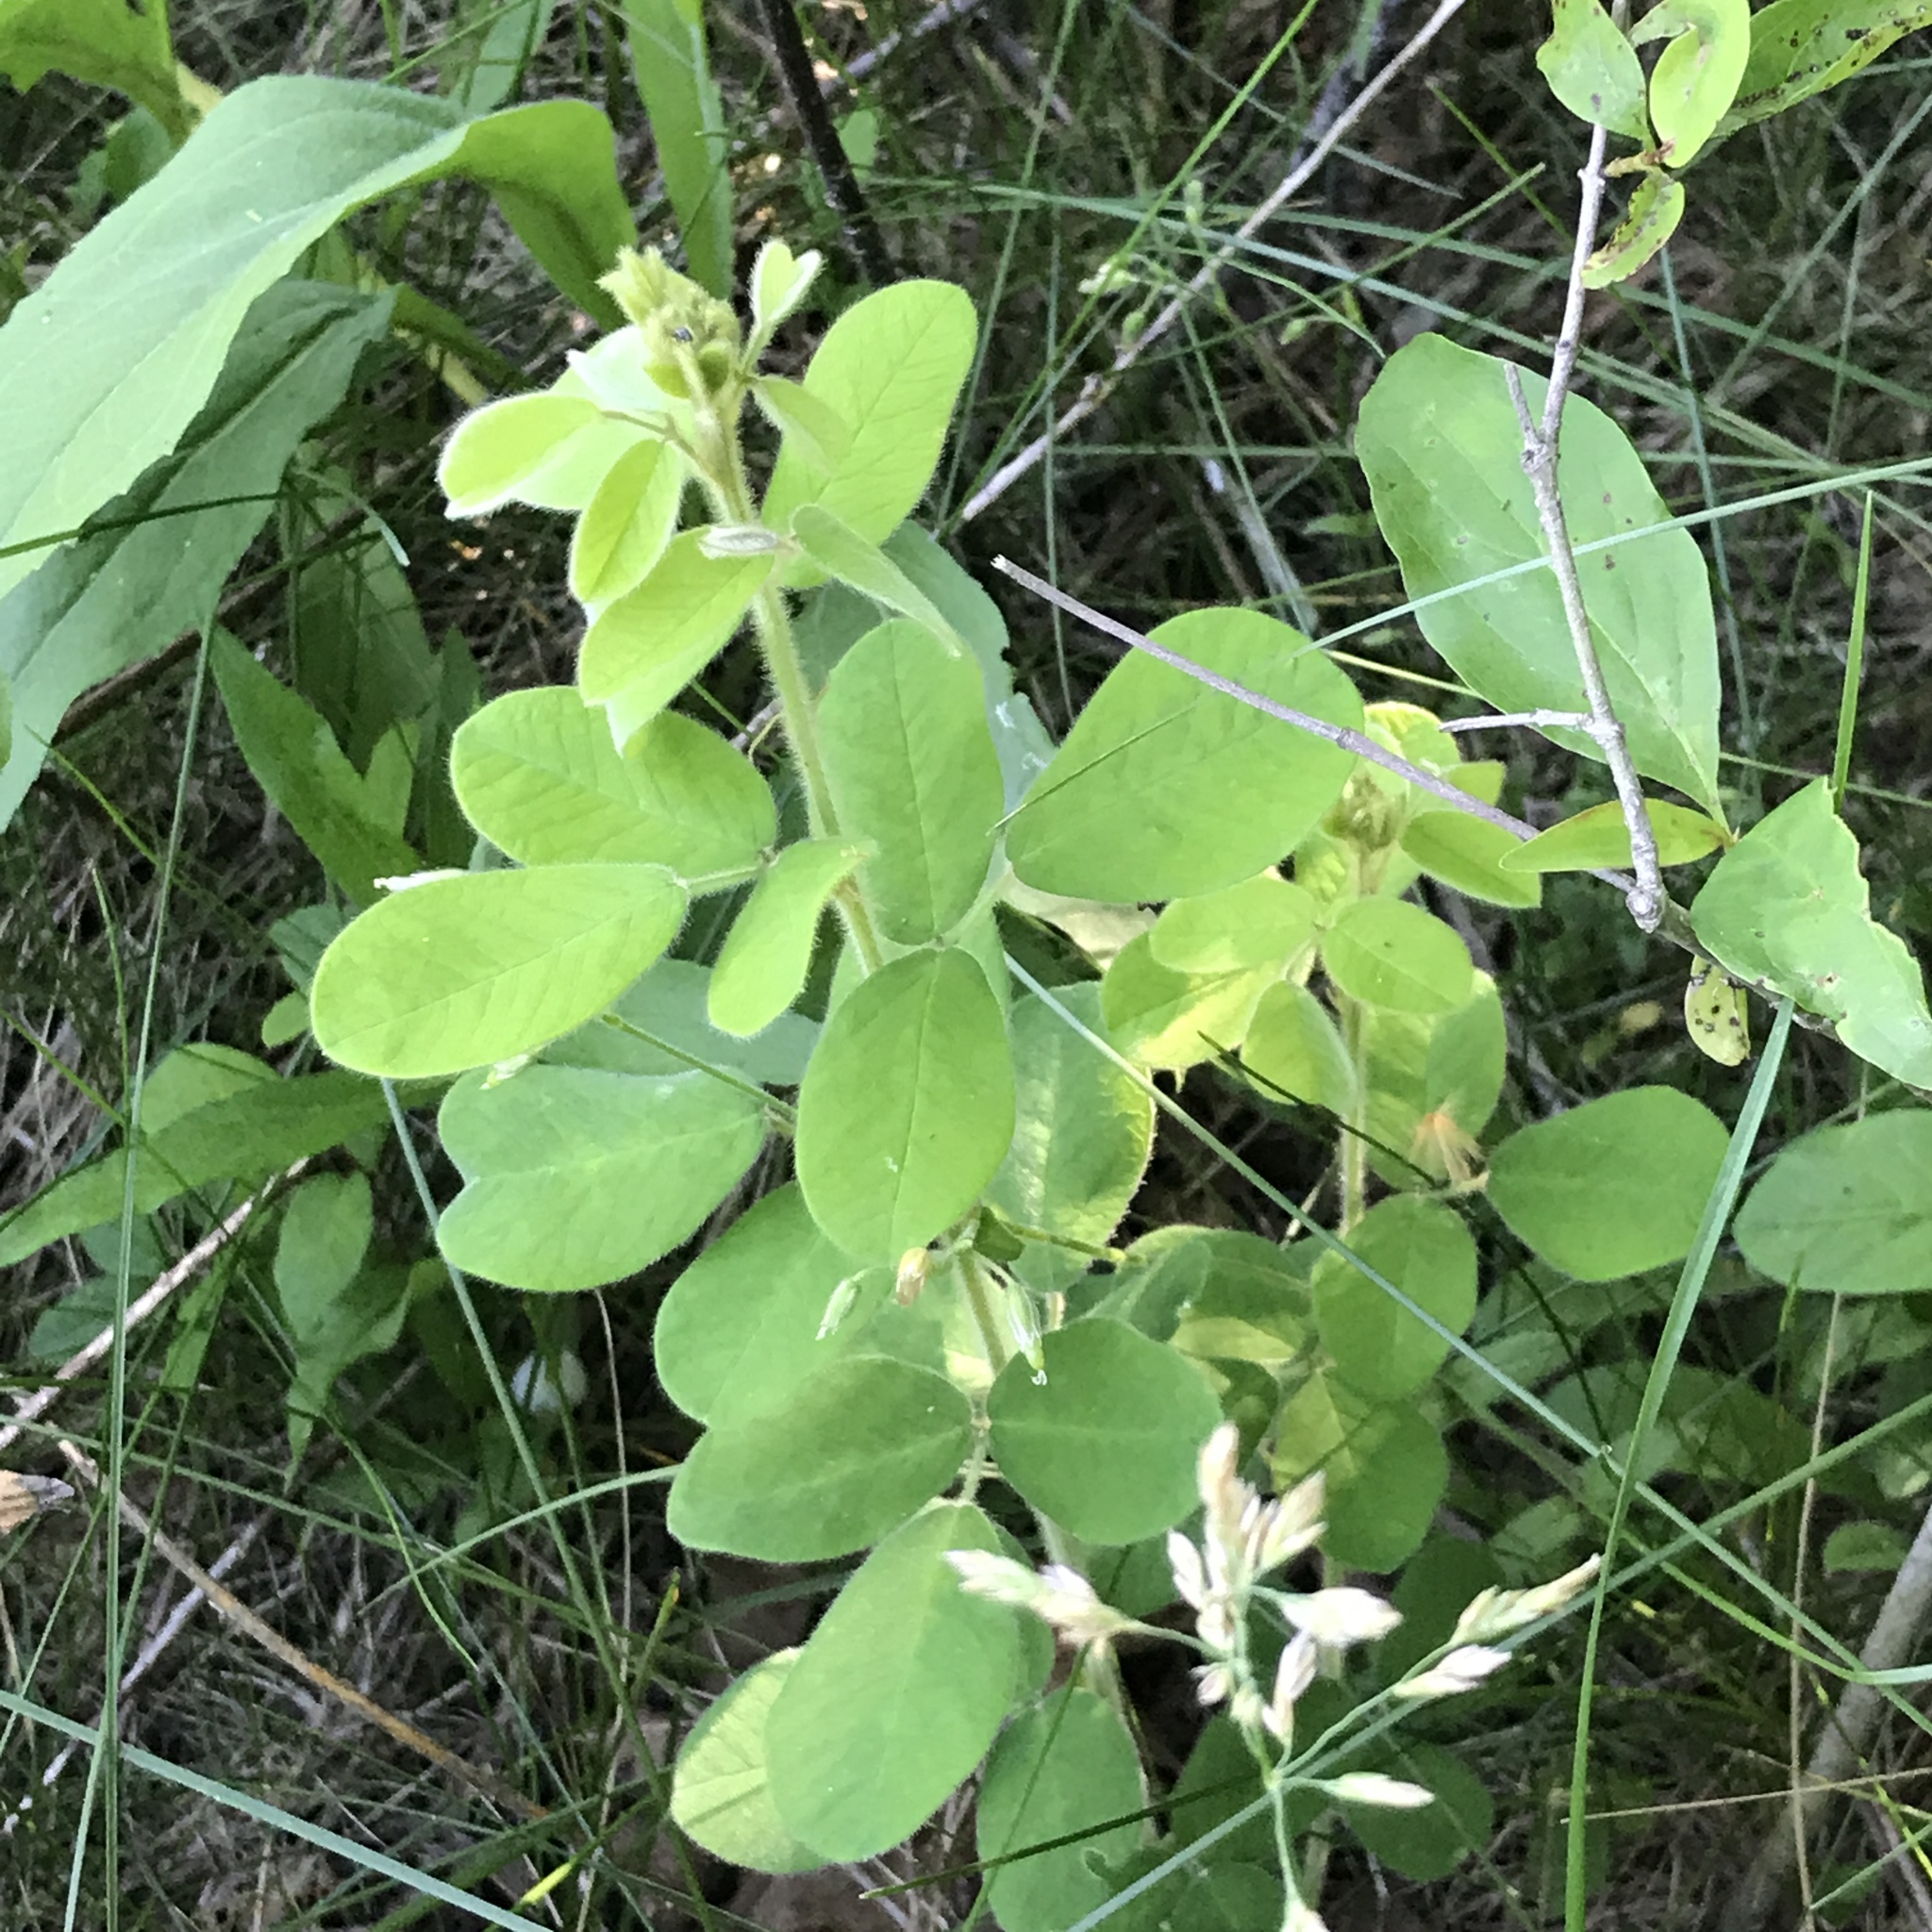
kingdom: Plantae
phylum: Tracheophyta
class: Magnoliopsida
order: Fabales
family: Fabaceae
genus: Lespedeza
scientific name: Lespedeza hirta
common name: Hairy lespedeza
